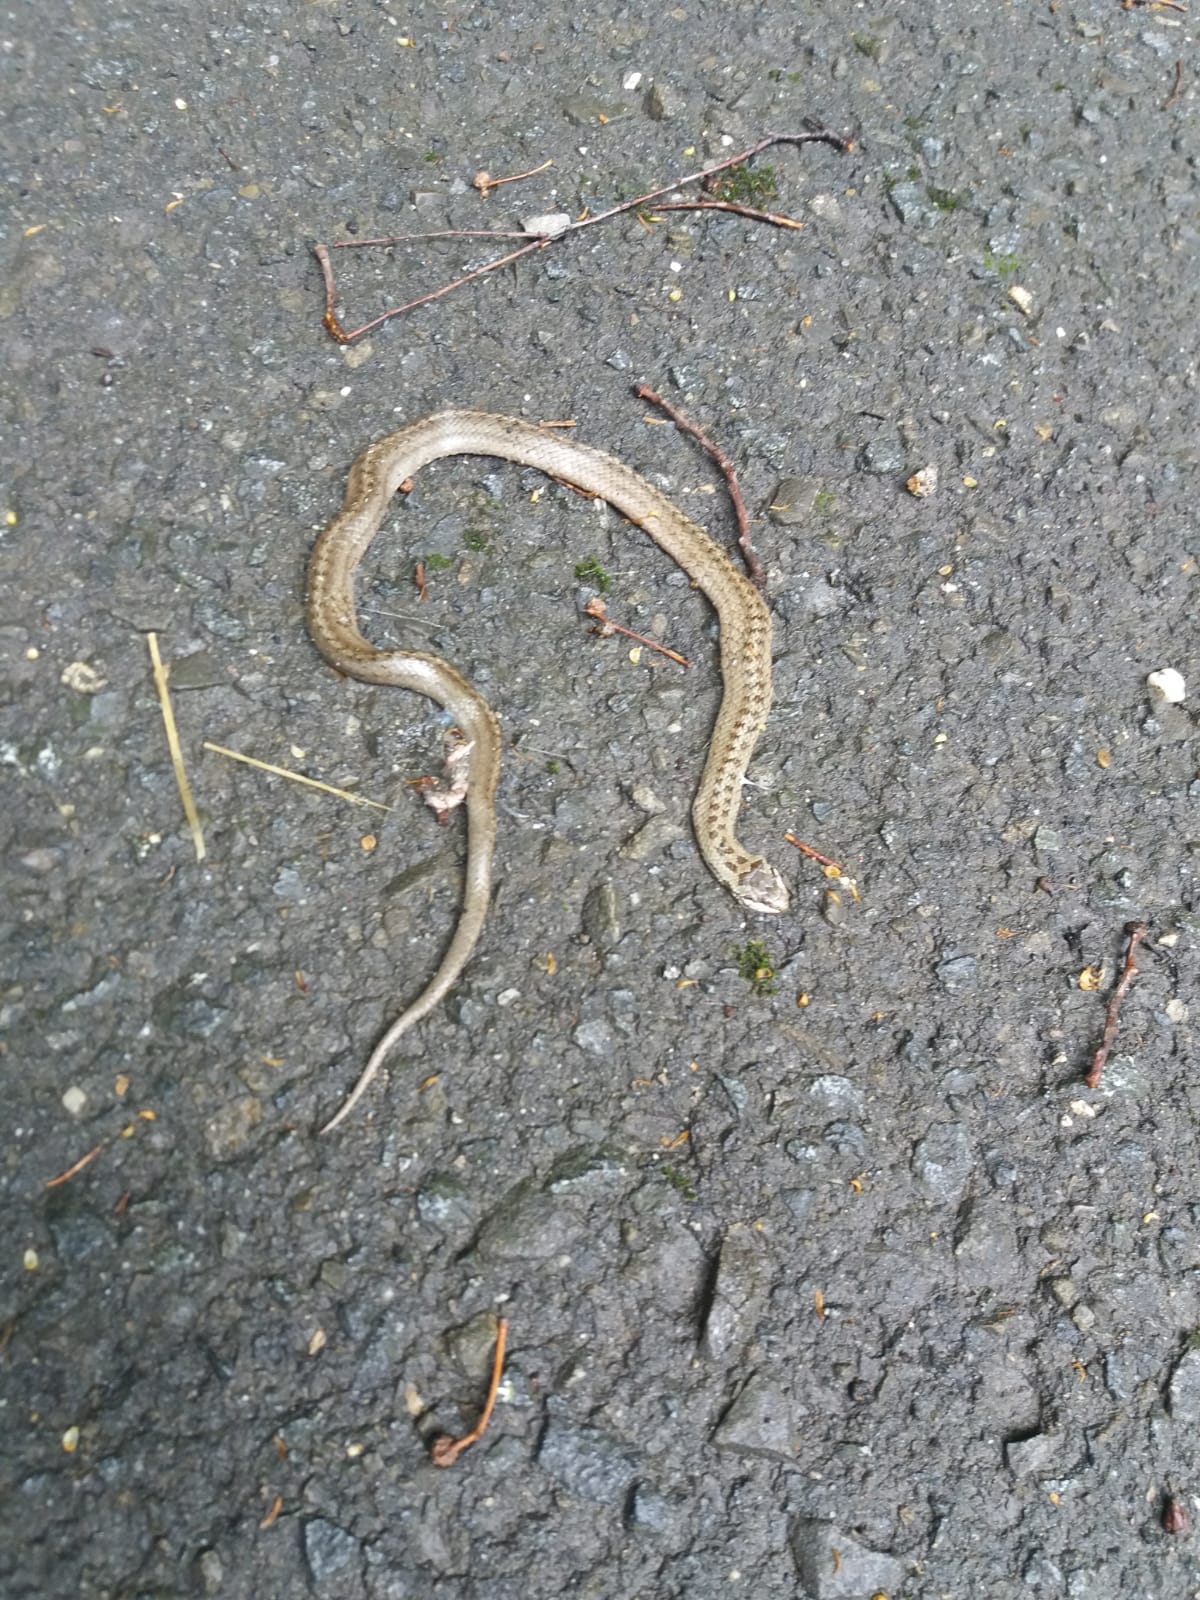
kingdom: Animalia
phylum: Chordata
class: Squamata
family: Colubridae
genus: Coronella
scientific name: Coronella austriaca
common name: Smooth snake
